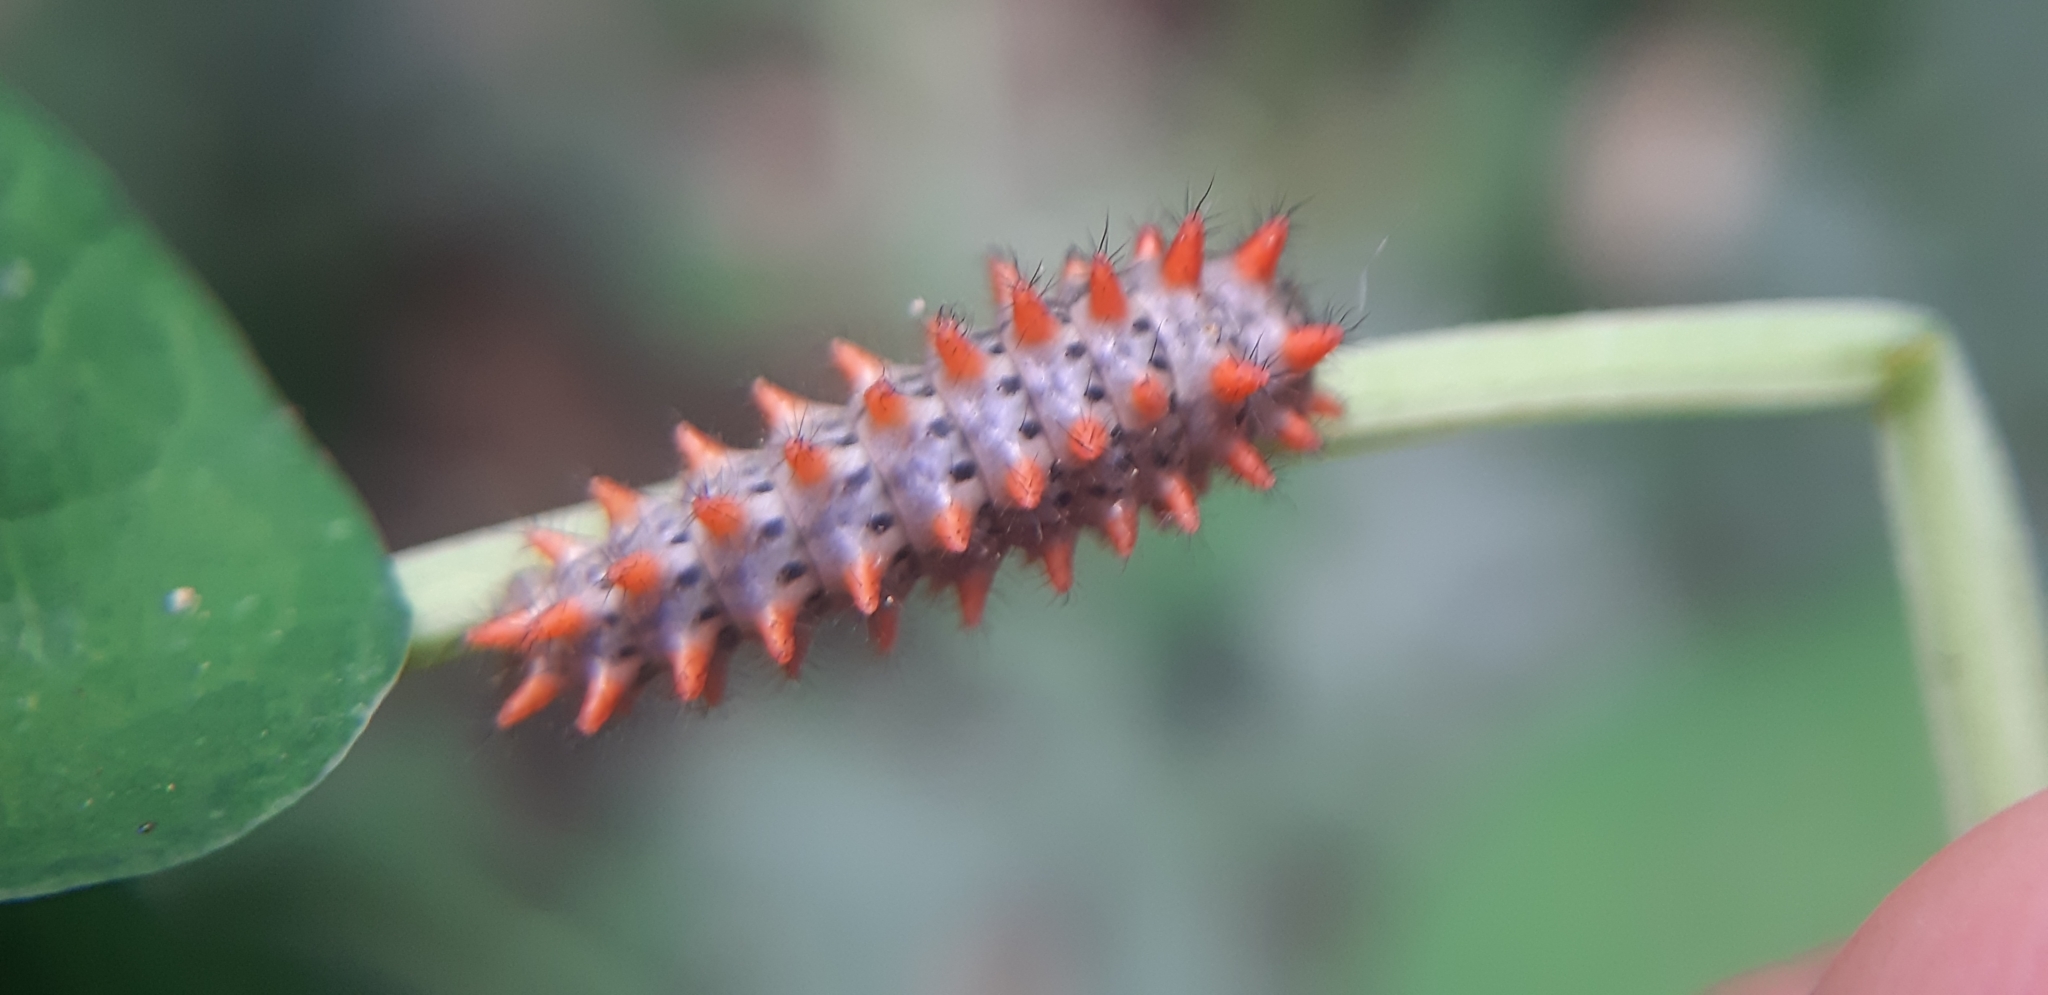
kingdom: Animalia
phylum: Arthropoda
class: Insecta
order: Lepidoptera
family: Papilionidae
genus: Zerynthia
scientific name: Zerynthia cassandra
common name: Italian festoon
